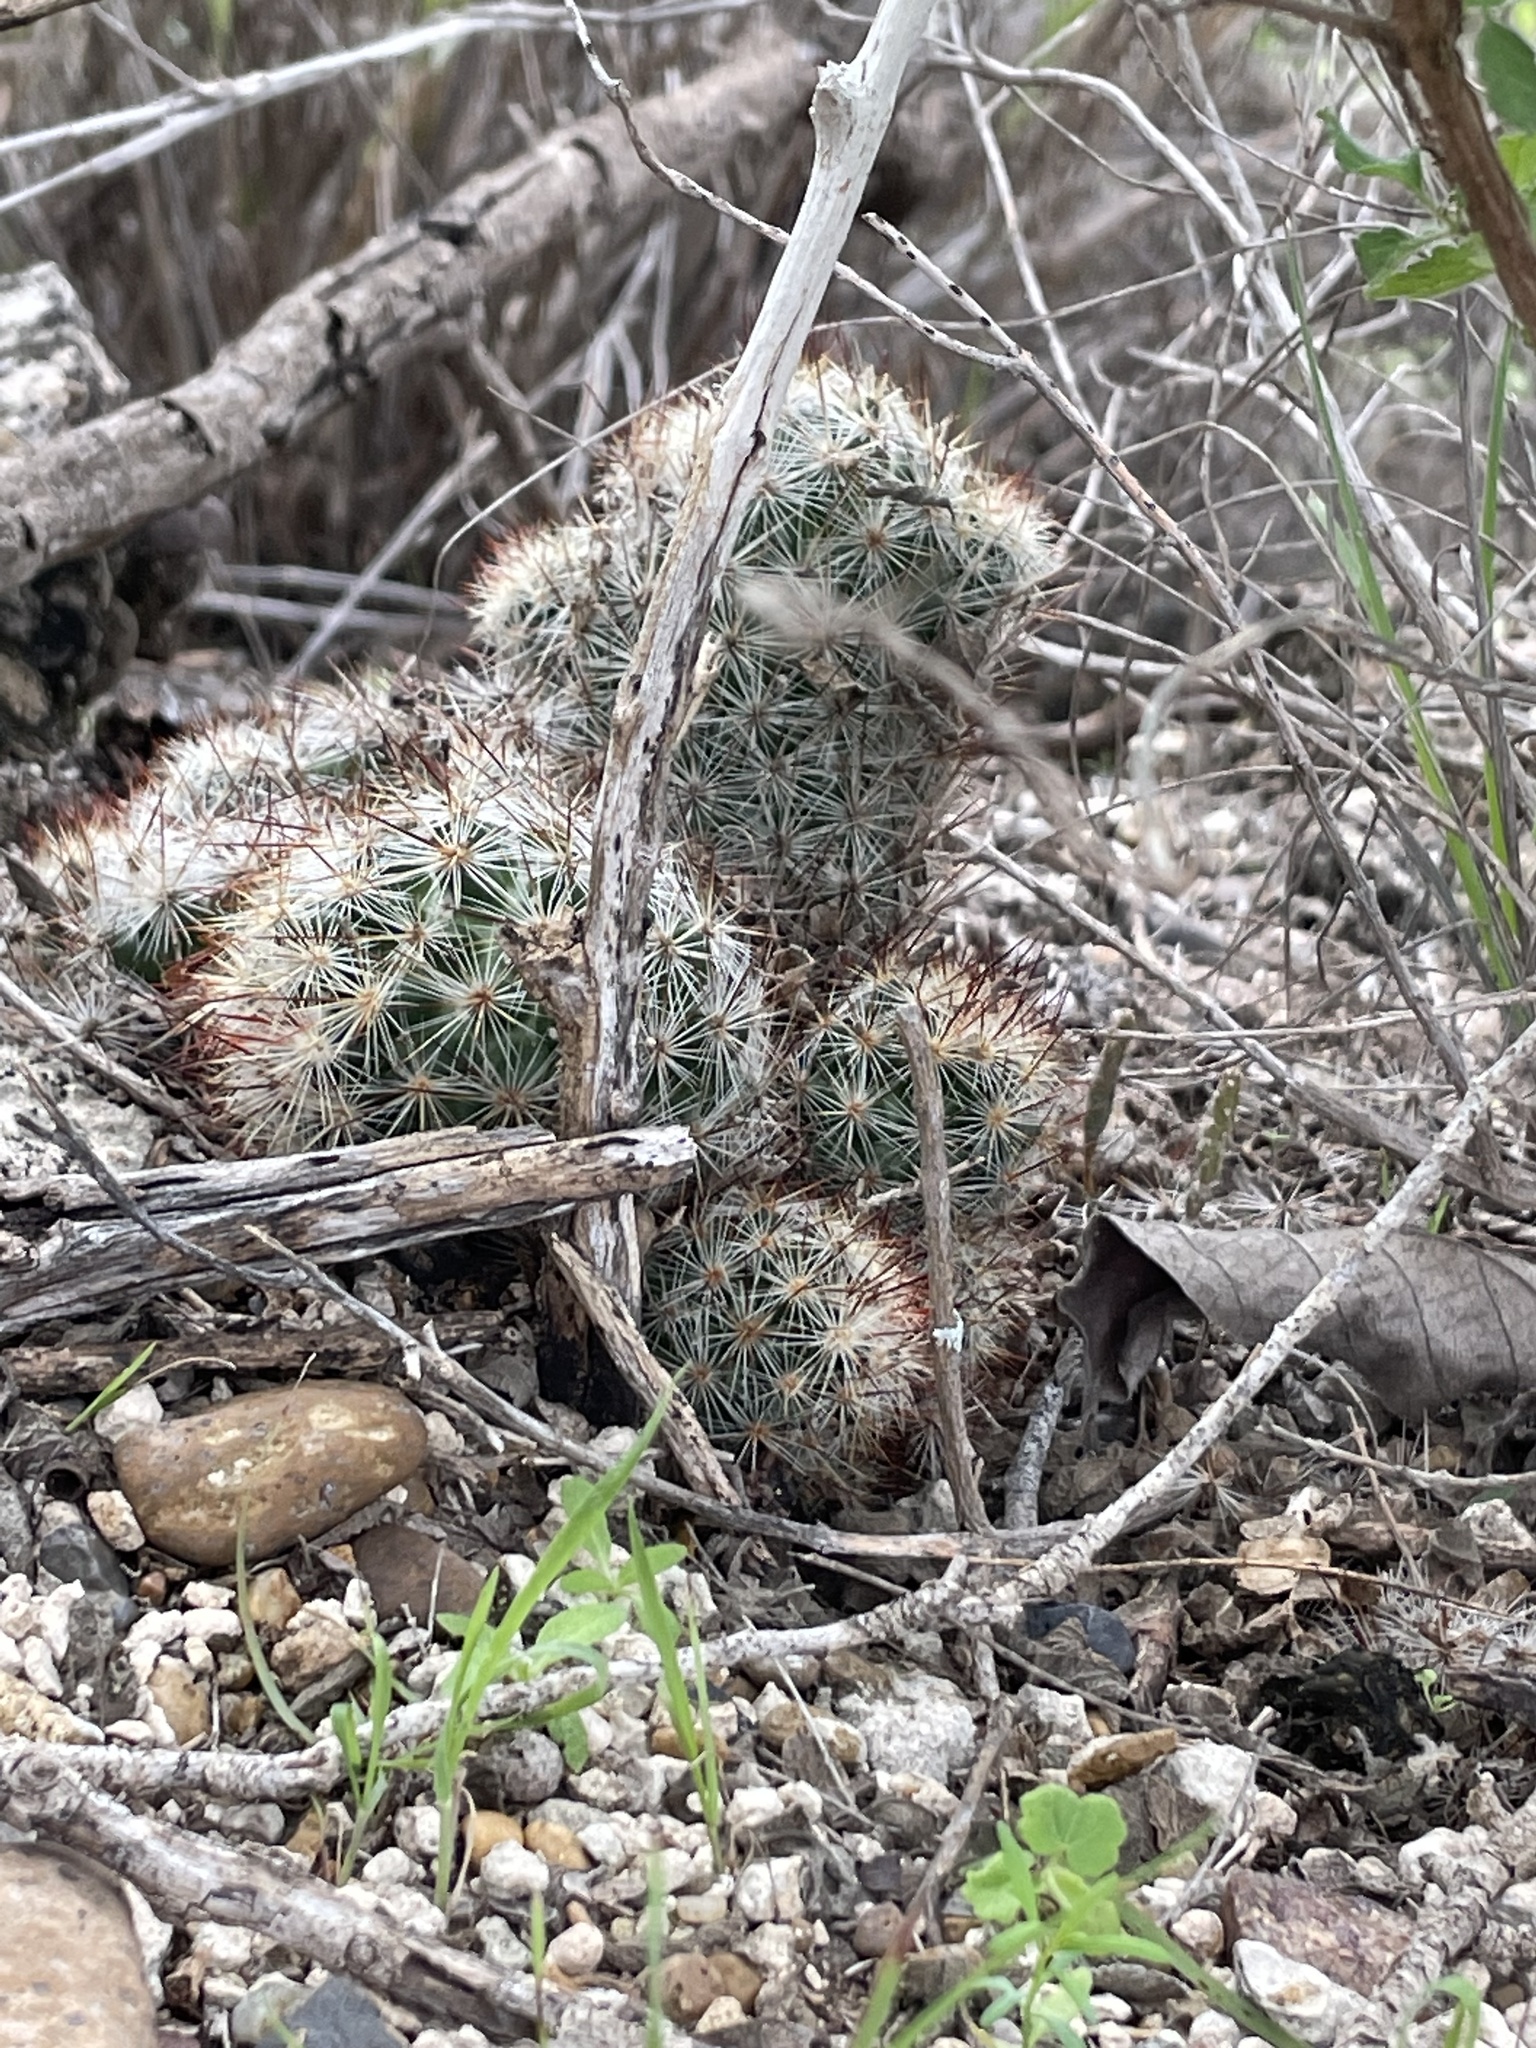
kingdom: Plantae
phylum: Tracheophyta
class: Magnoliopsida
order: Caryophyllales
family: Cactaceae
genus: Pelecyphora
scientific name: Pelecyphora emskoetteriana
